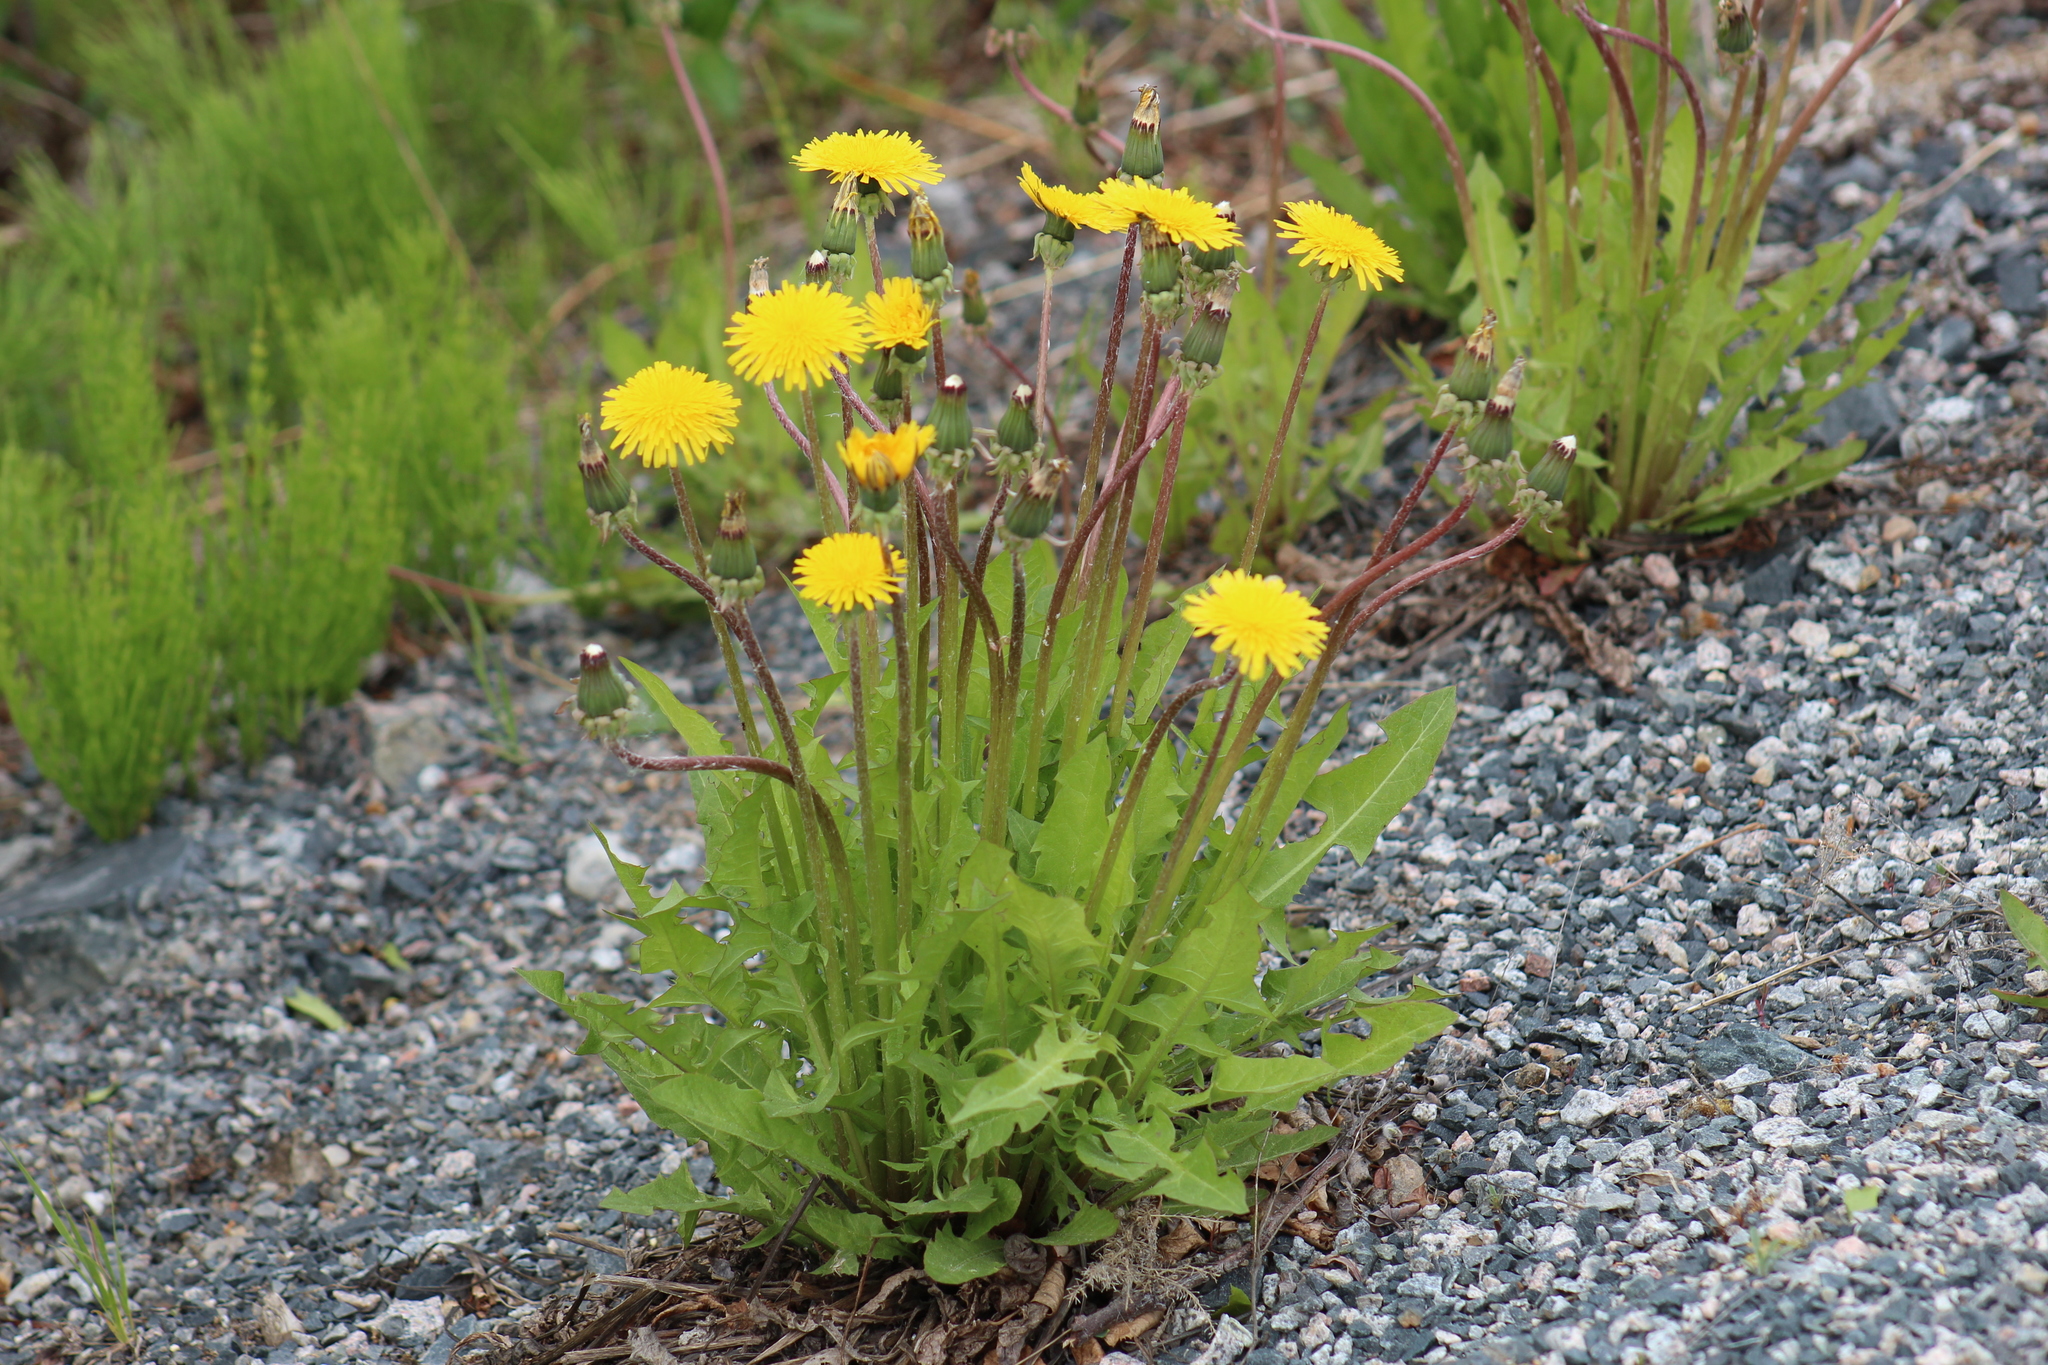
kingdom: Plantae
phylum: Tracheophyta
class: Magnoliopsida
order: Asterales
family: Asteraceae
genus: Taraxacum
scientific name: Taraxacum officinale
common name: Common dandelion
